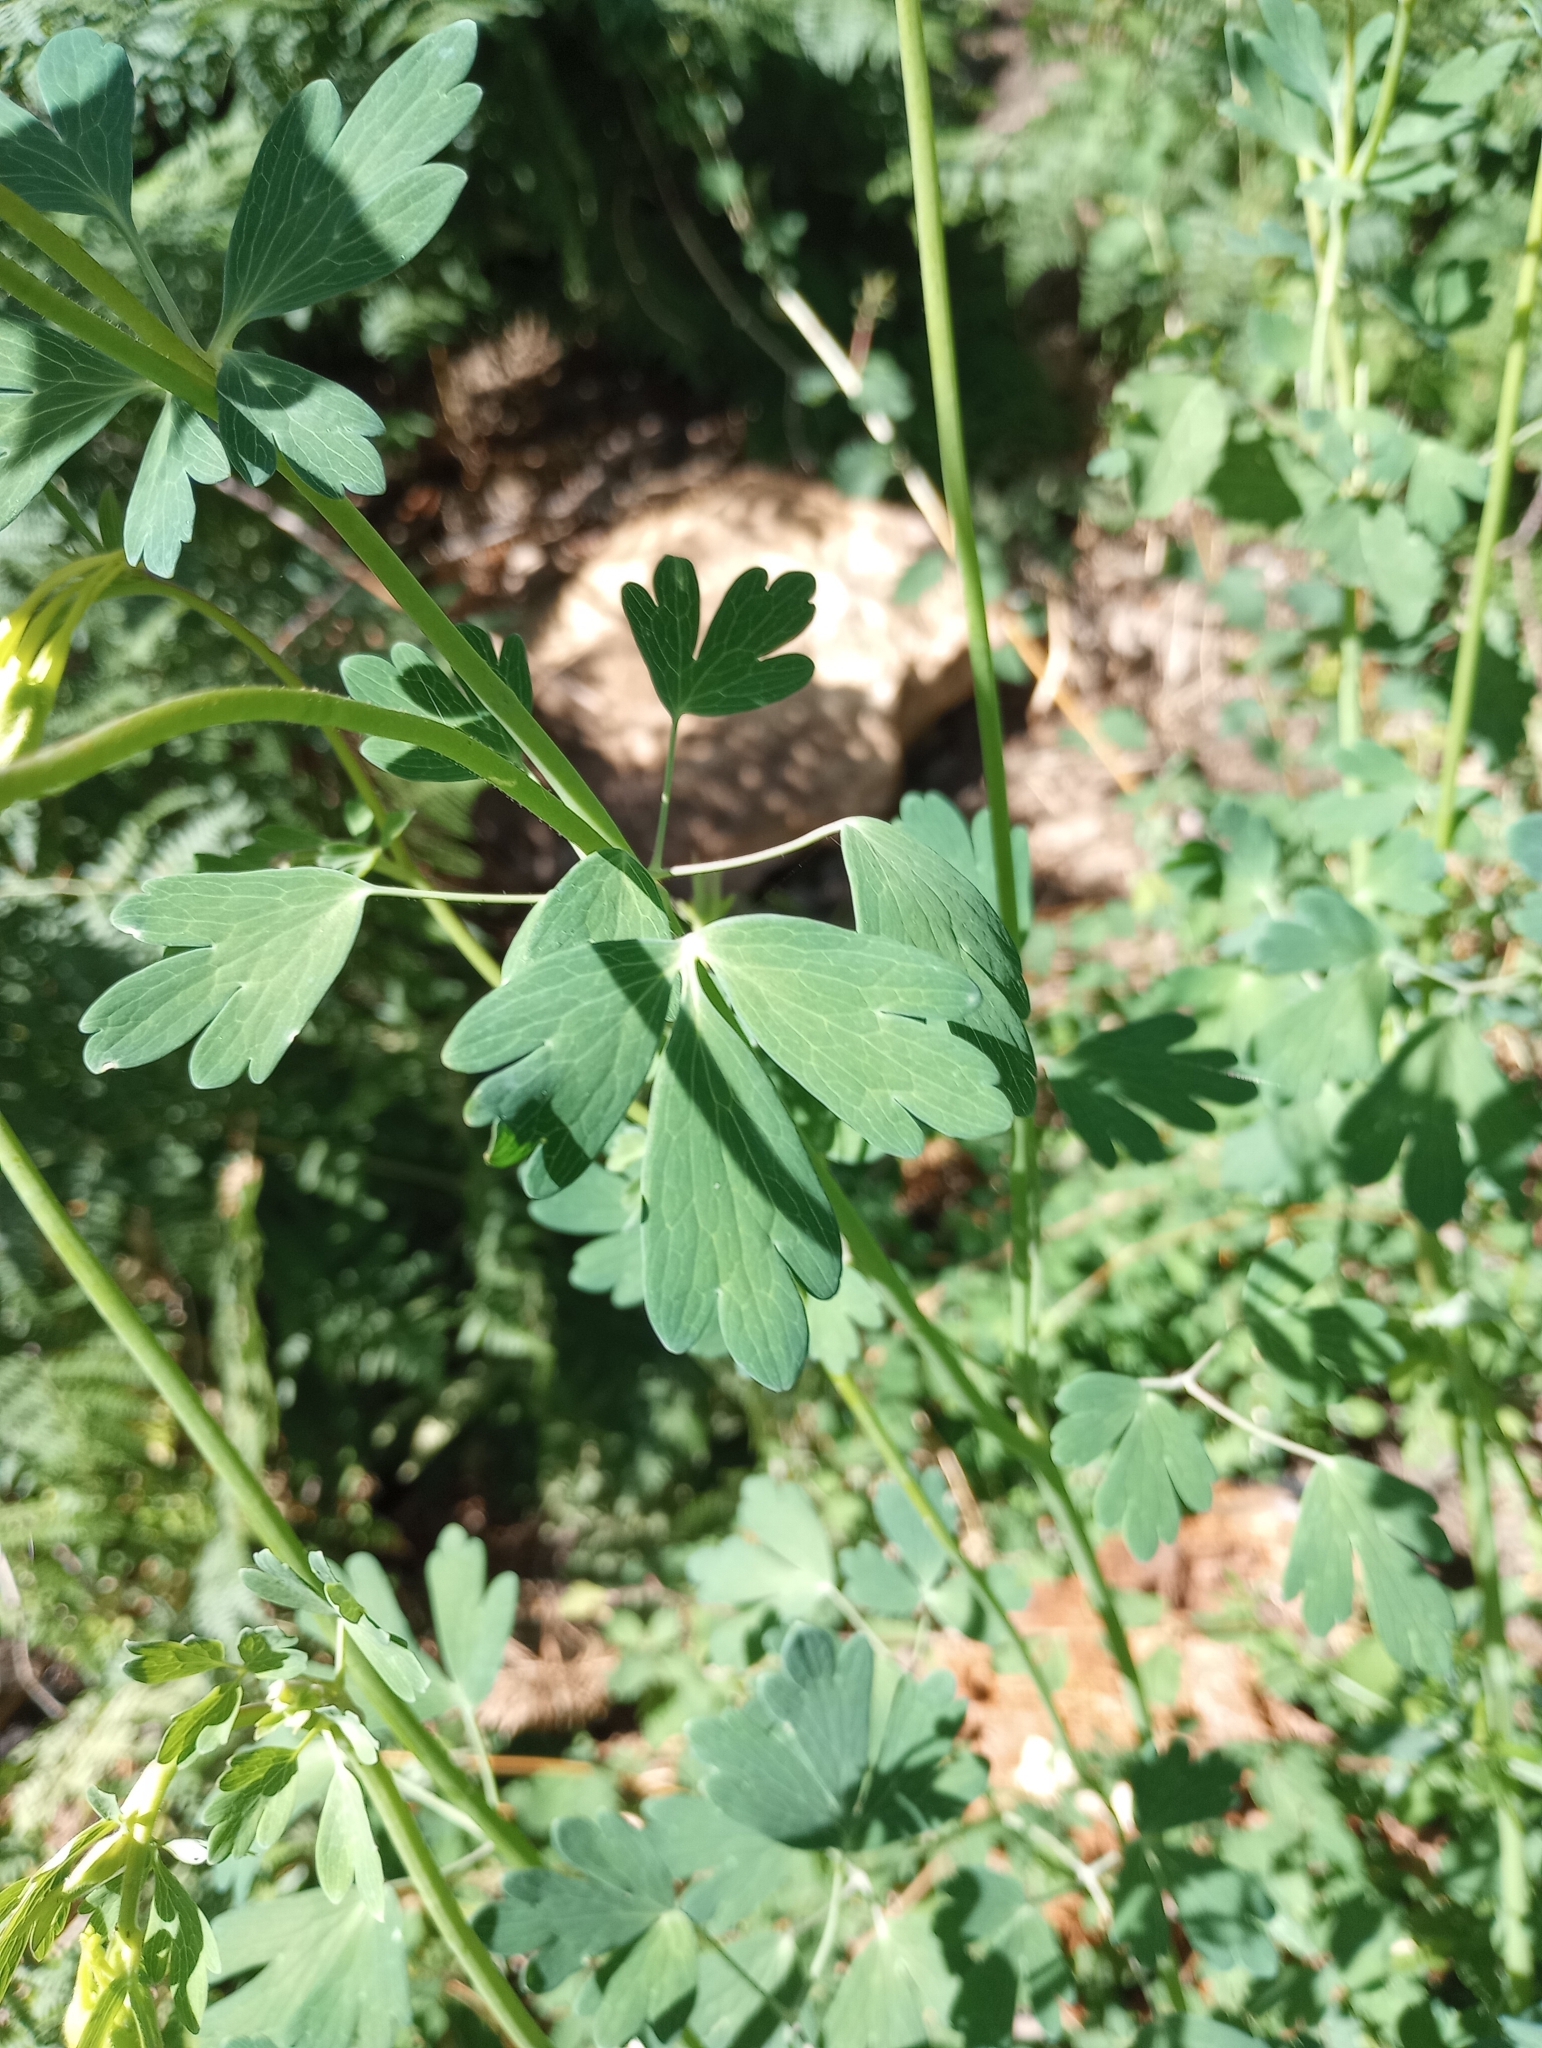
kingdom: Plantae
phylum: Tracheophyta
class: Magnoliopsida
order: Ranunculales
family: Ranunculaceae
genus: Aquilegia
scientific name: Aquilegia chrysantha
